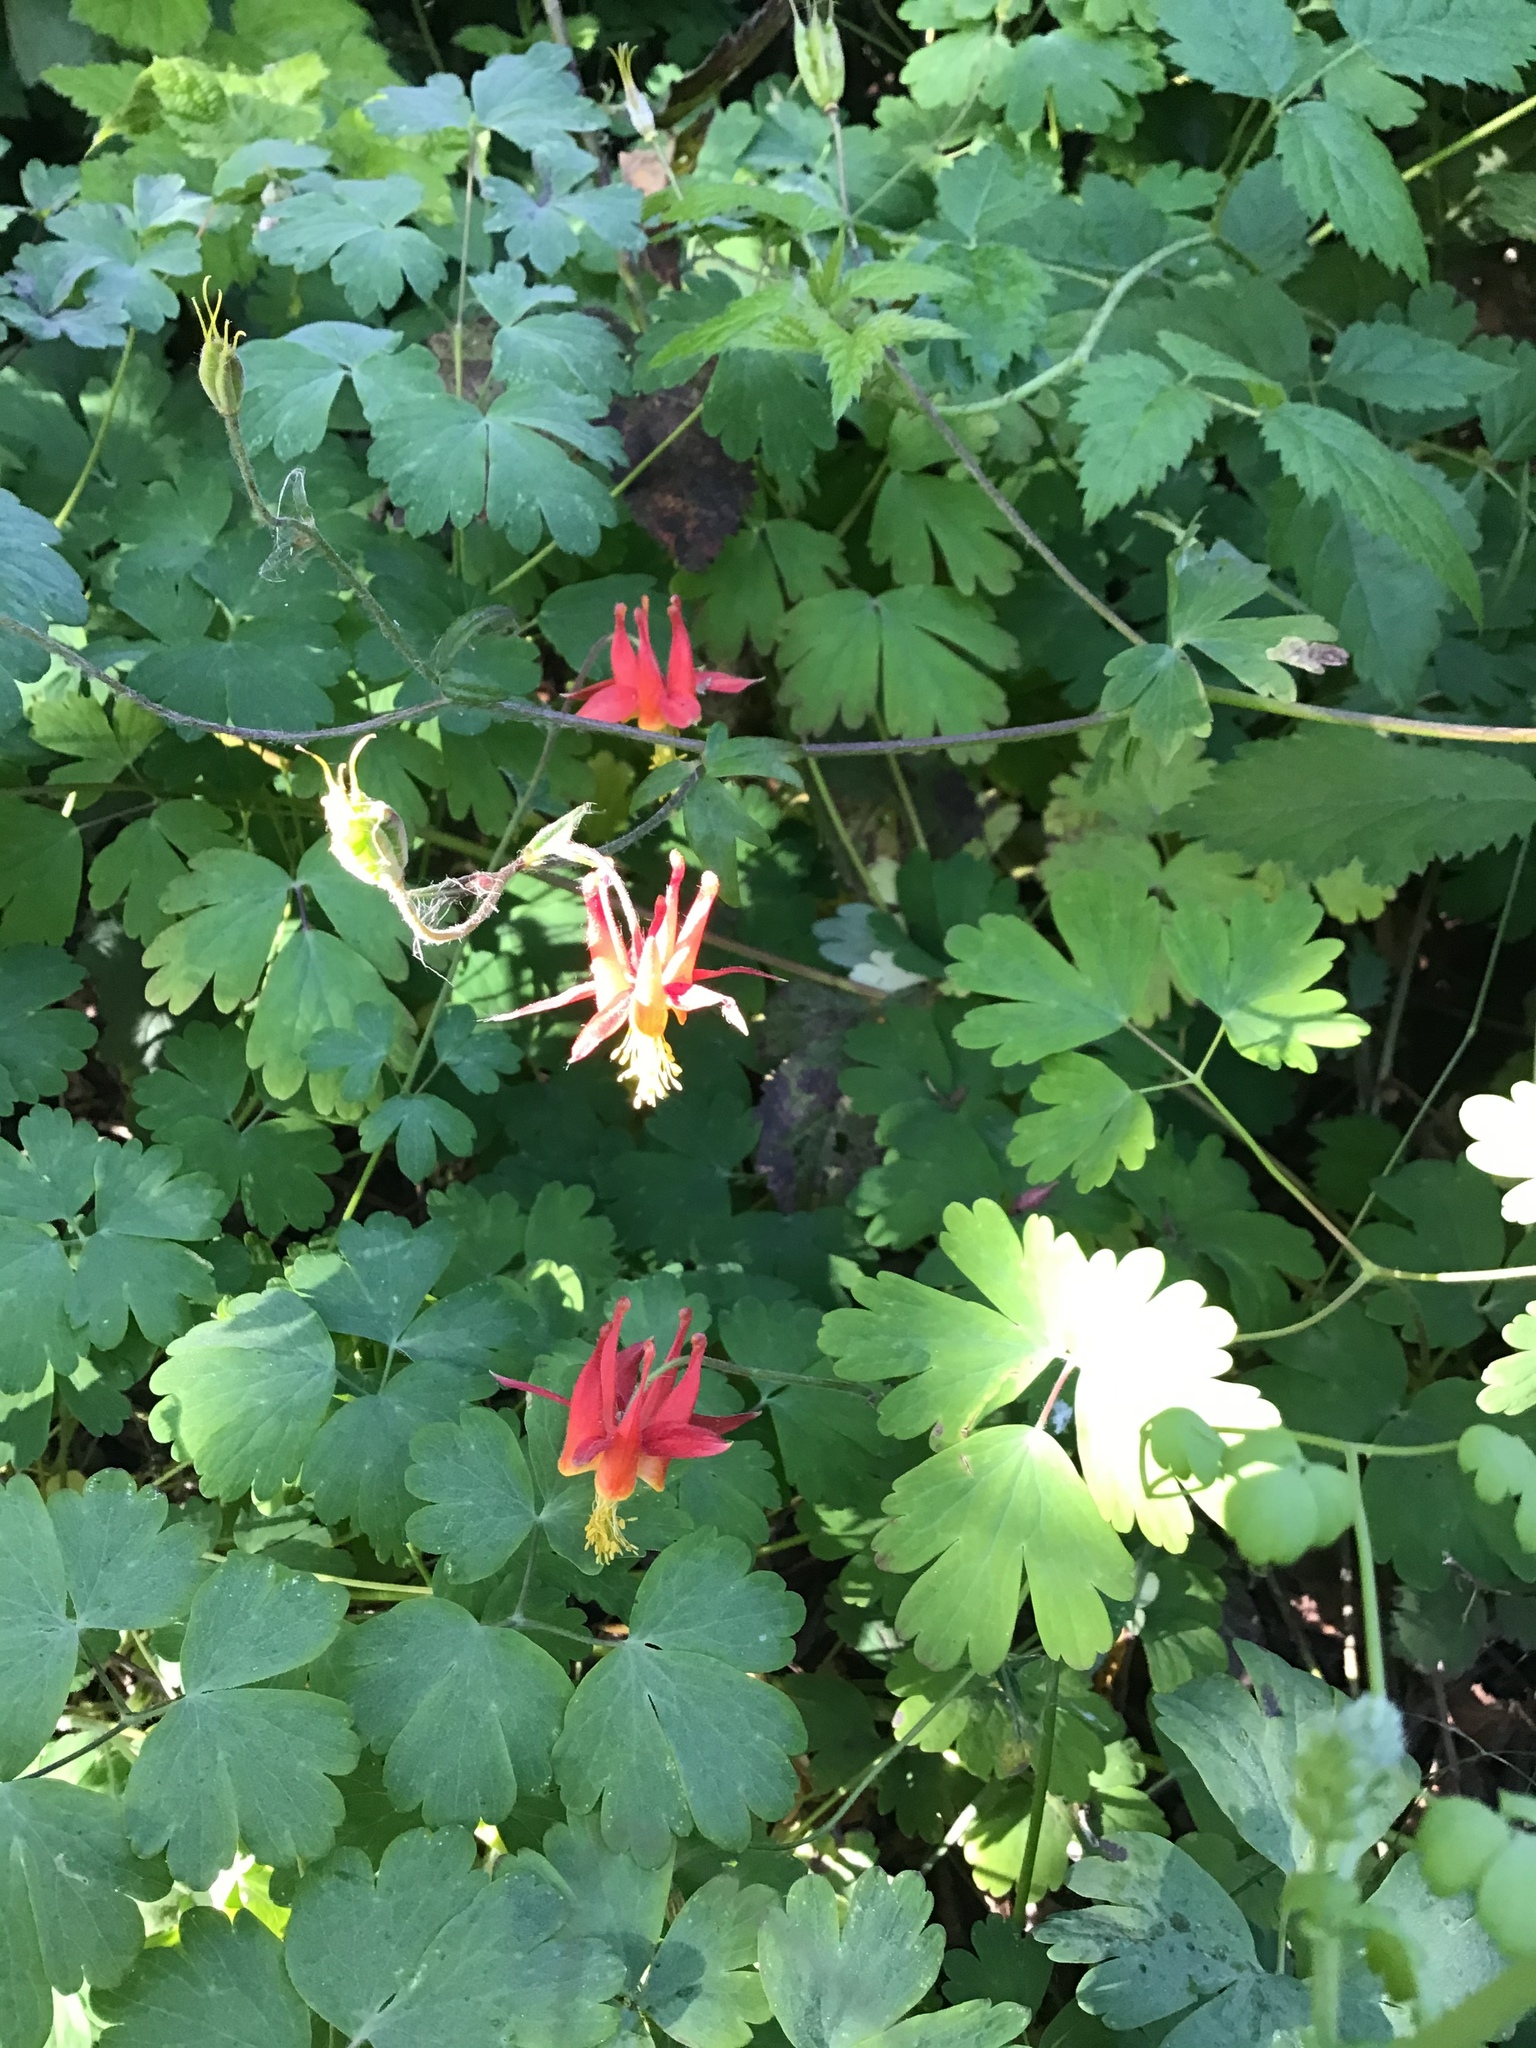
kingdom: Plantae
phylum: Tracheophyta
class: Magnoliopsida
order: Ranunculales
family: Ranunculaceae
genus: Aquilegia
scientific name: Aquilegia formosa
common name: Sitka columbine
